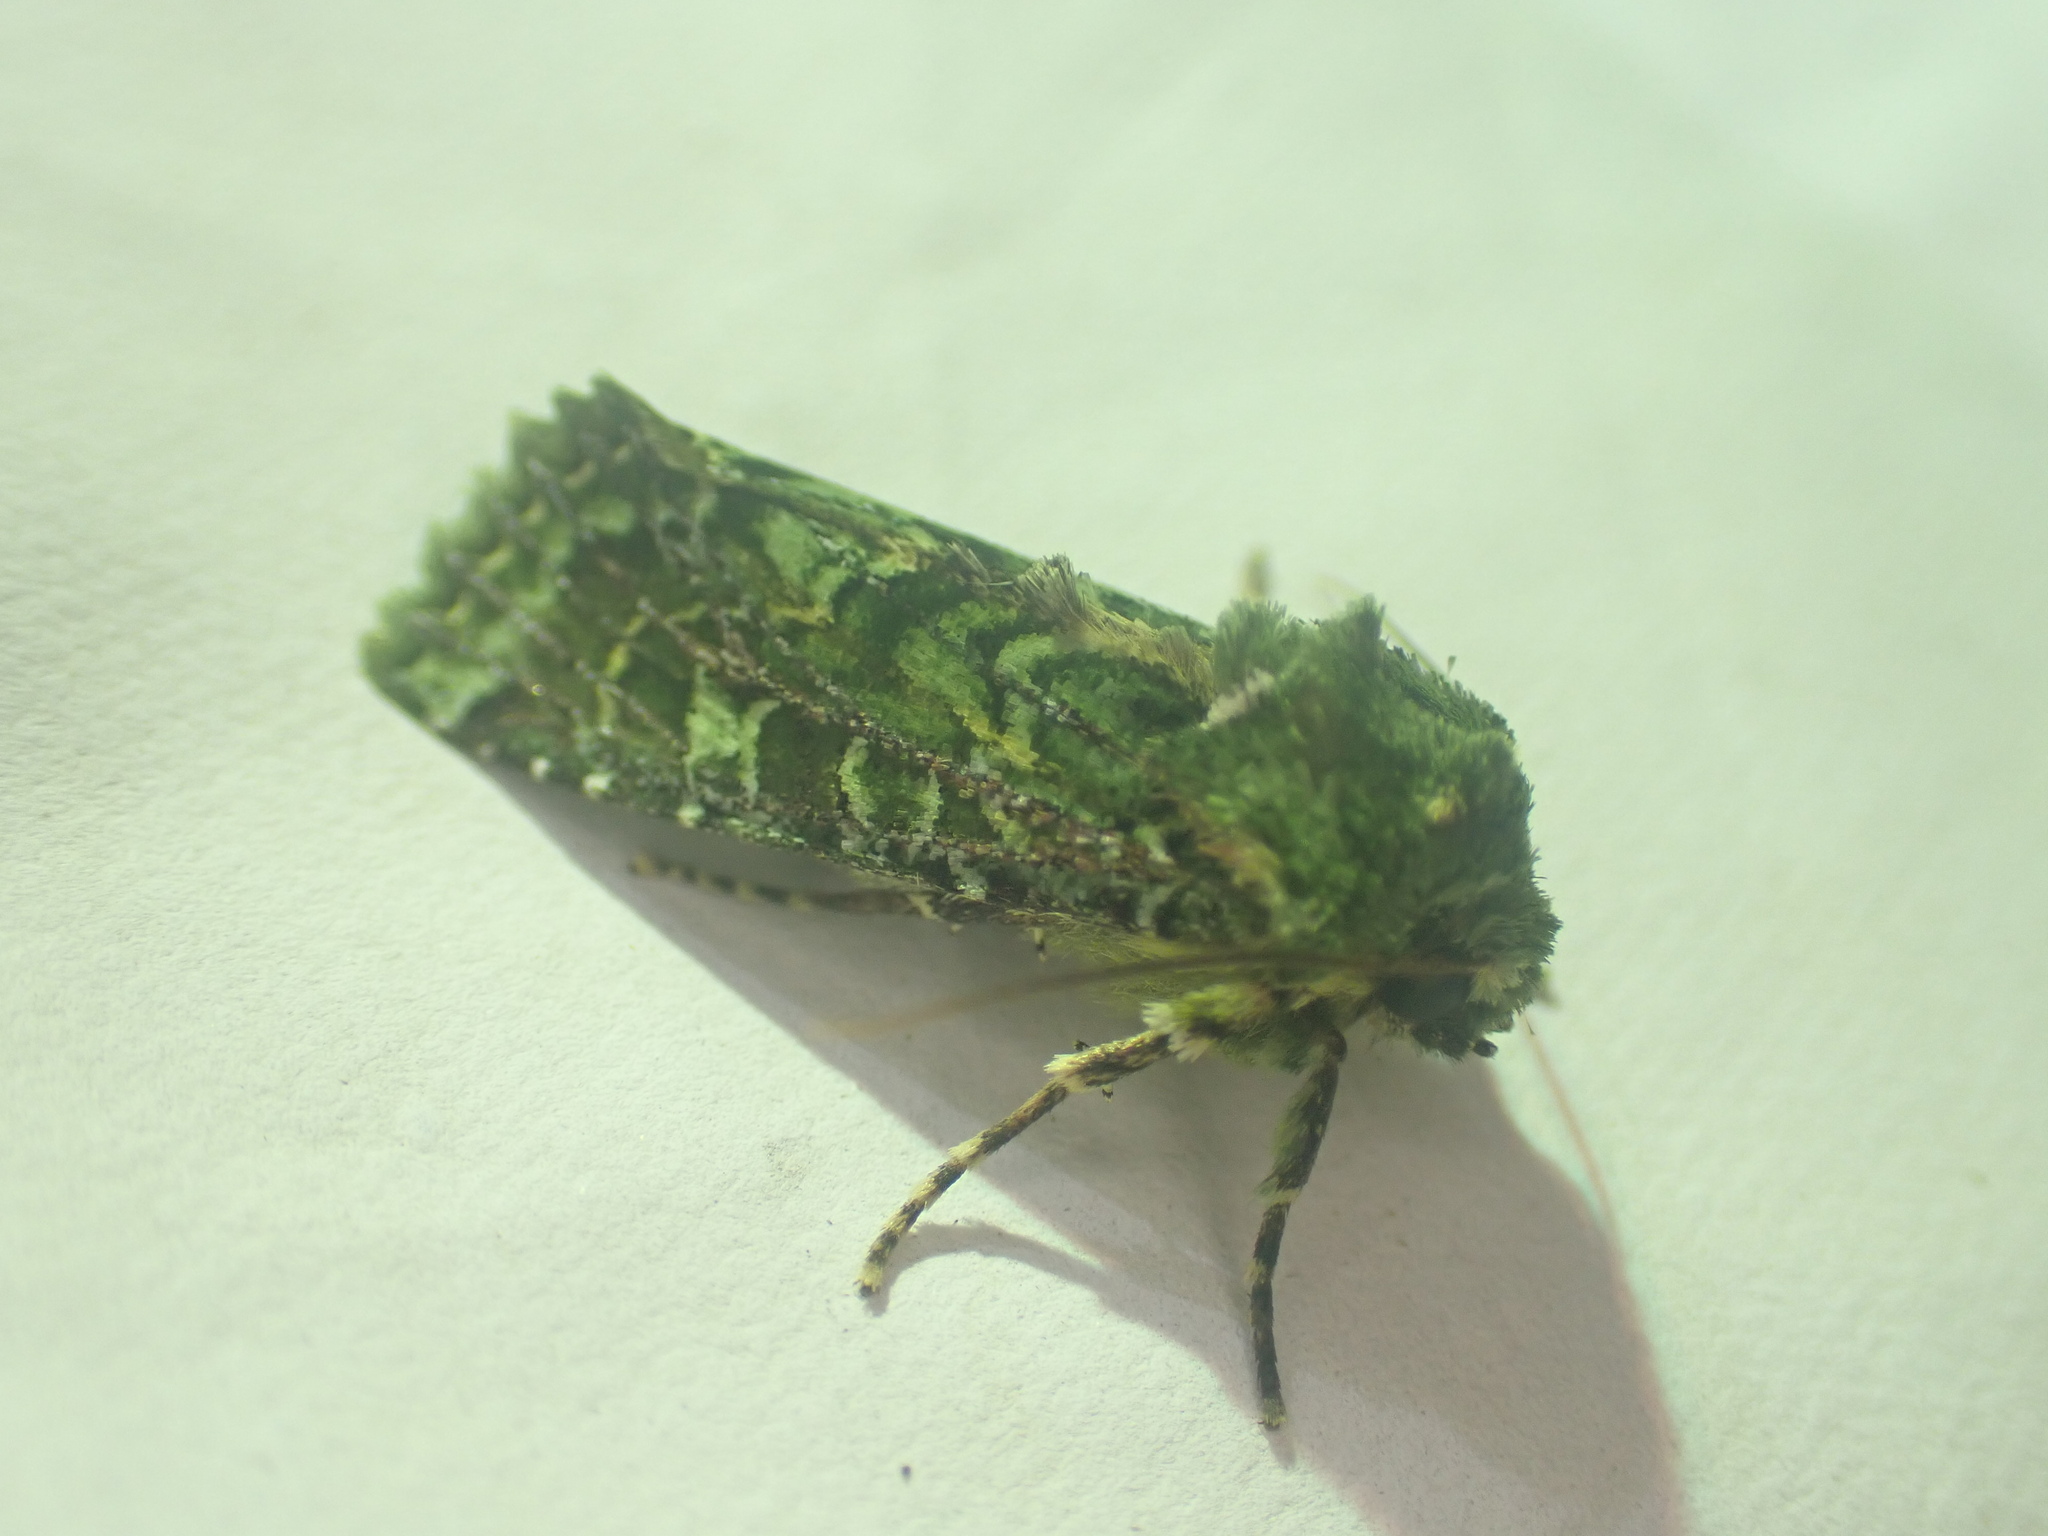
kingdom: Animalia
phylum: Arthropoda
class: Insecta
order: Lepidoptera
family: Noctuidae
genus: Feredayia
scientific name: Feredayia grammosa
